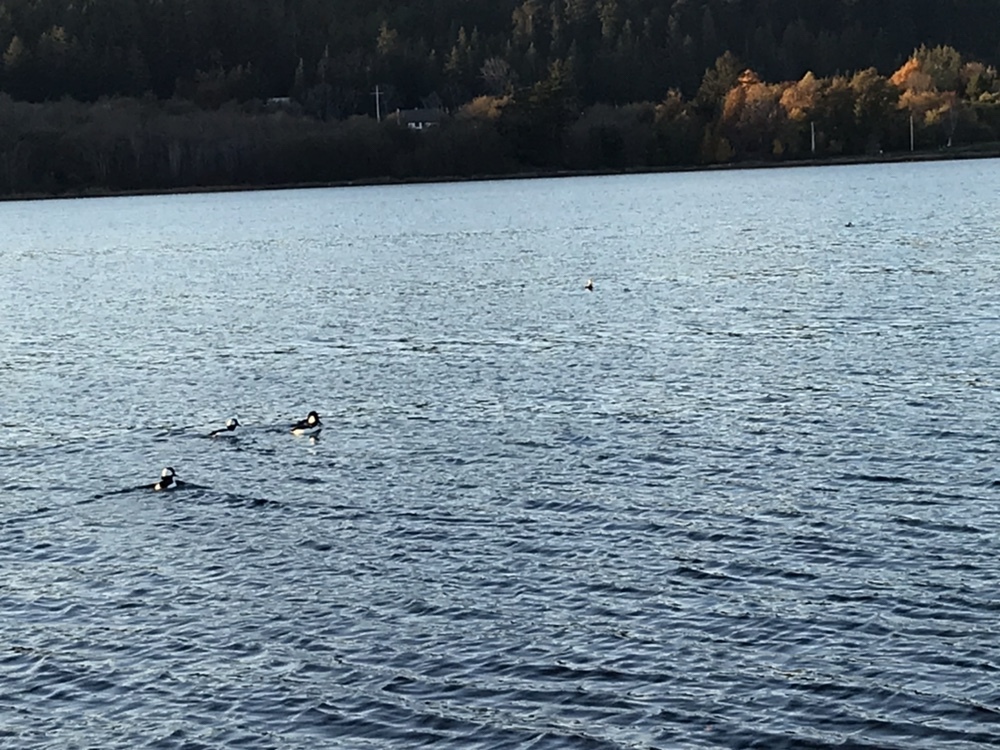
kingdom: Animalia
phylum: Chordata
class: Aves
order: Anseriformes
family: Anatidae
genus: Bucephala
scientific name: Bucephala albeola
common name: Bufflehead
